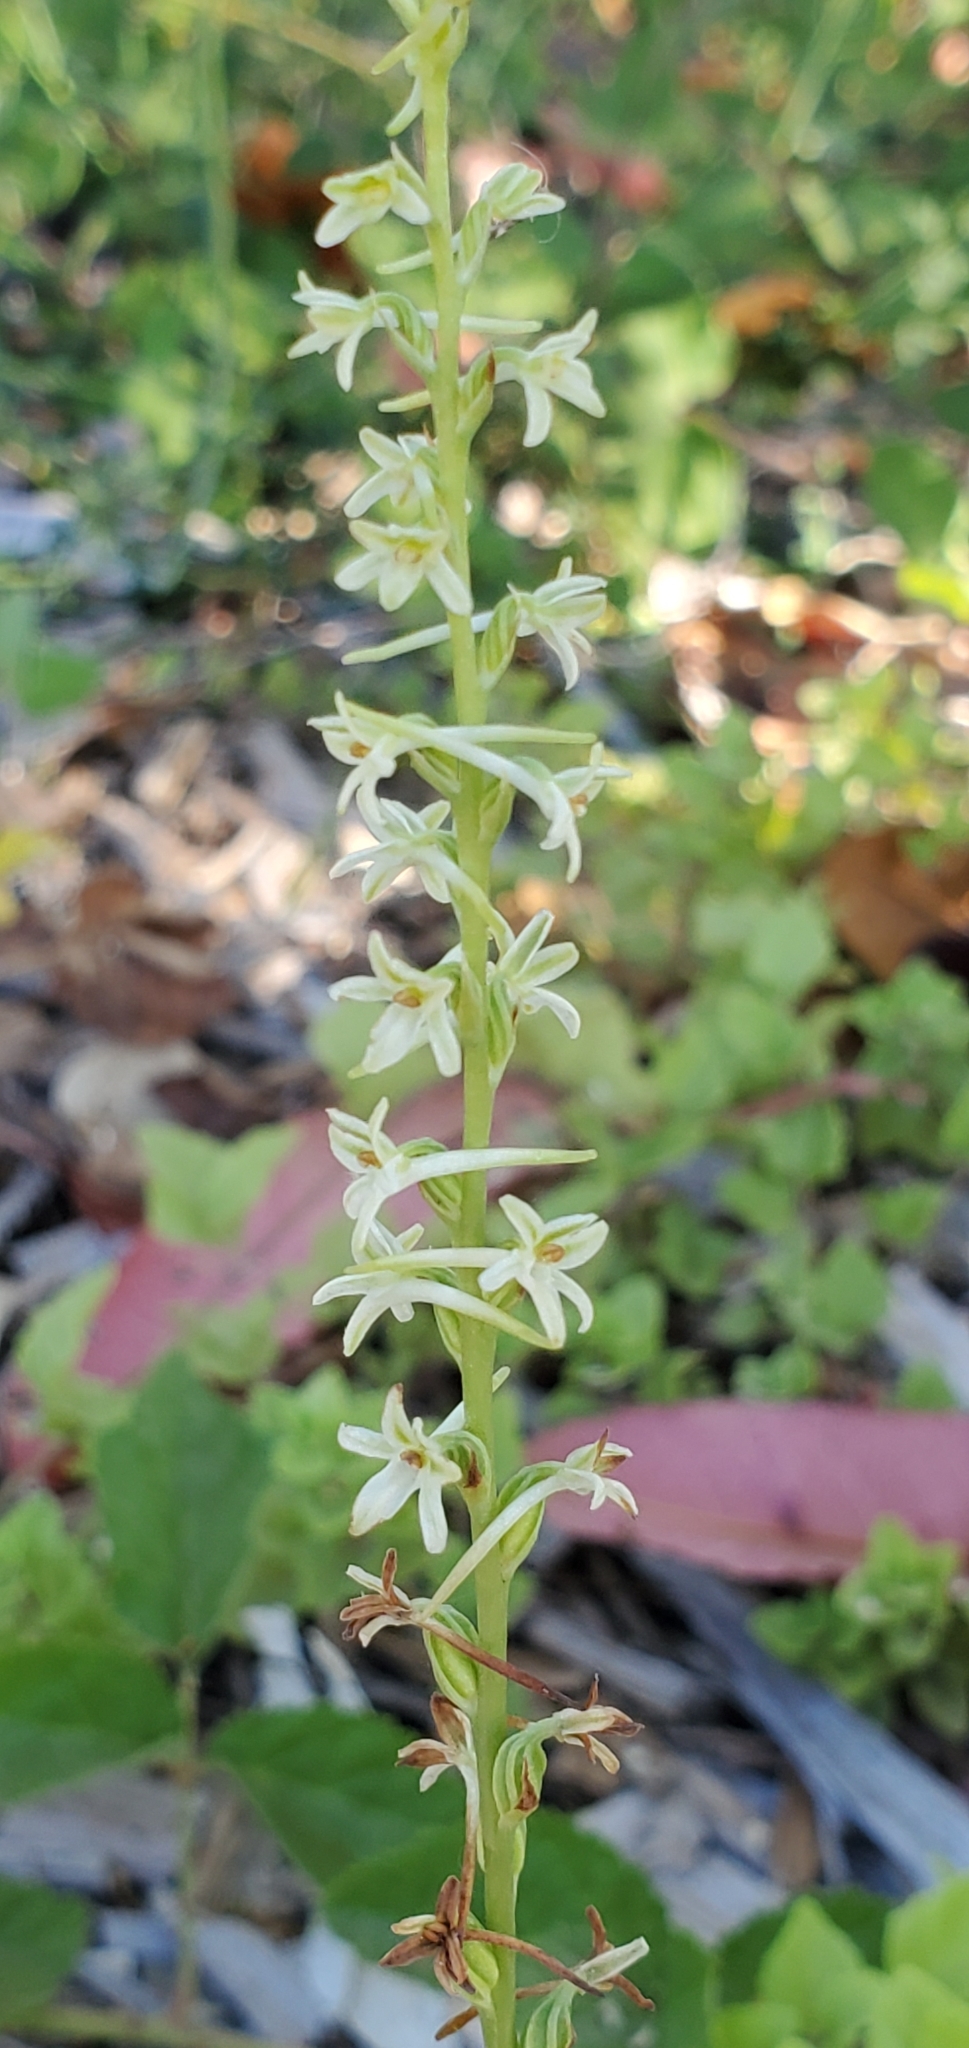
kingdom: Plantae
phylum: Tracheophyta
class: Liliopsida
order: Asparagales
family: Orchidaceae
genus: Platanthera
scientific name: Platanthera transversa
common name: Royal rein orchid
